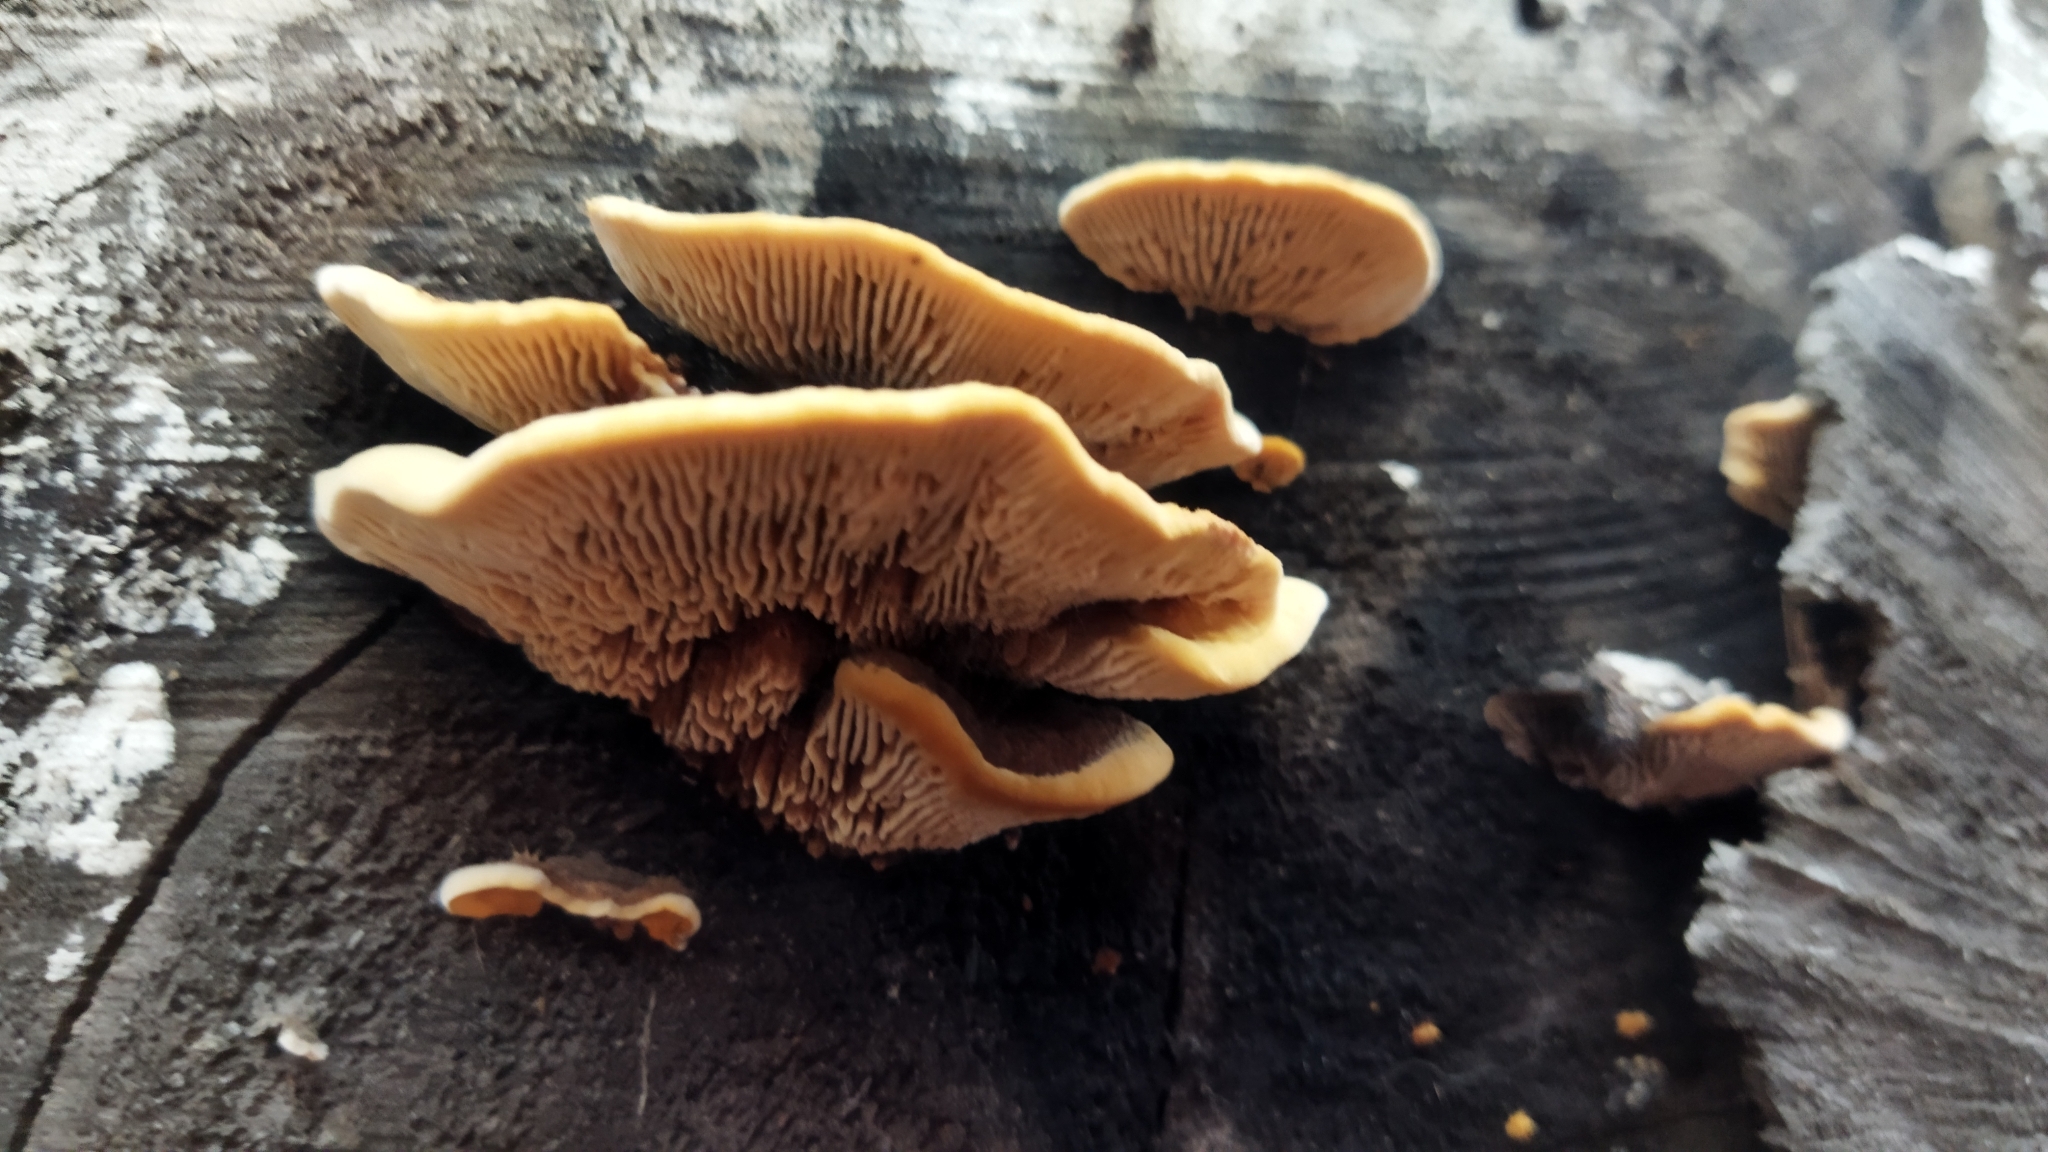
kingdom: Fungi
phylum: Basidiomycota
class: Agaricomycetes
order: Gloeophyllales
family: Gloeophyllaceae
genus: Gloeophyllum
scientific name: Gloeophyllum sepiarium
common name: Conifer mazegill
